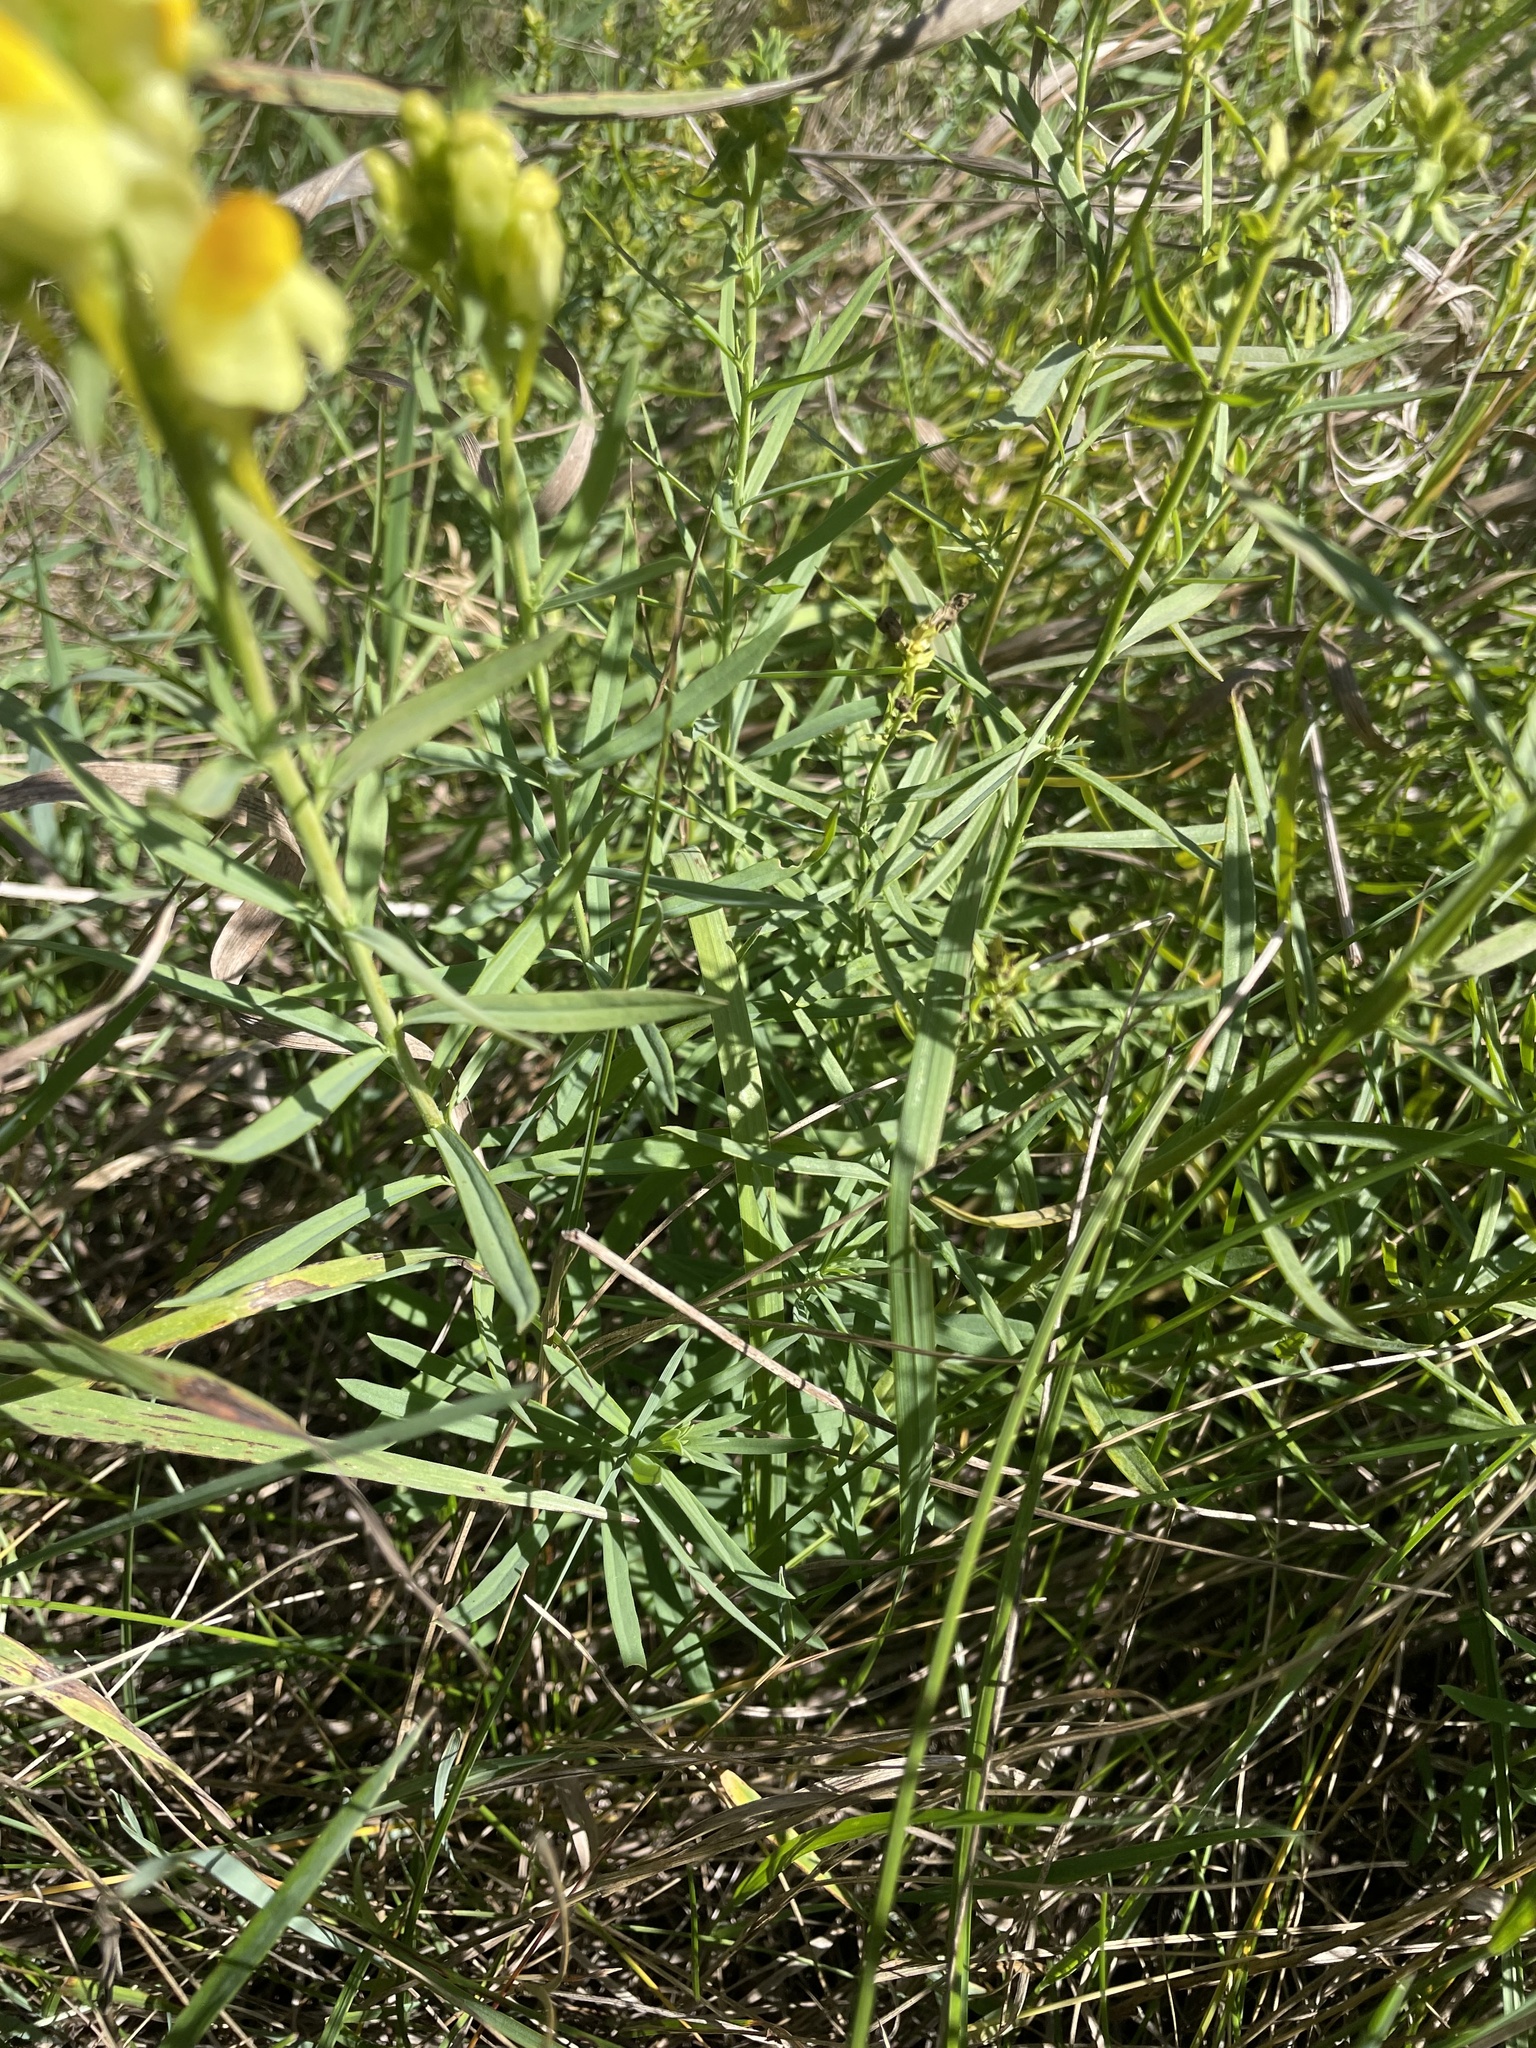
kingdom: Plantae
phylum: Tracheophyta
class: Magnoliopsida
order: Lamiales
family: Plantaginaceae
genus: Linaria
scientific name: Linaria vulgaris
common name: Butter and eggs
